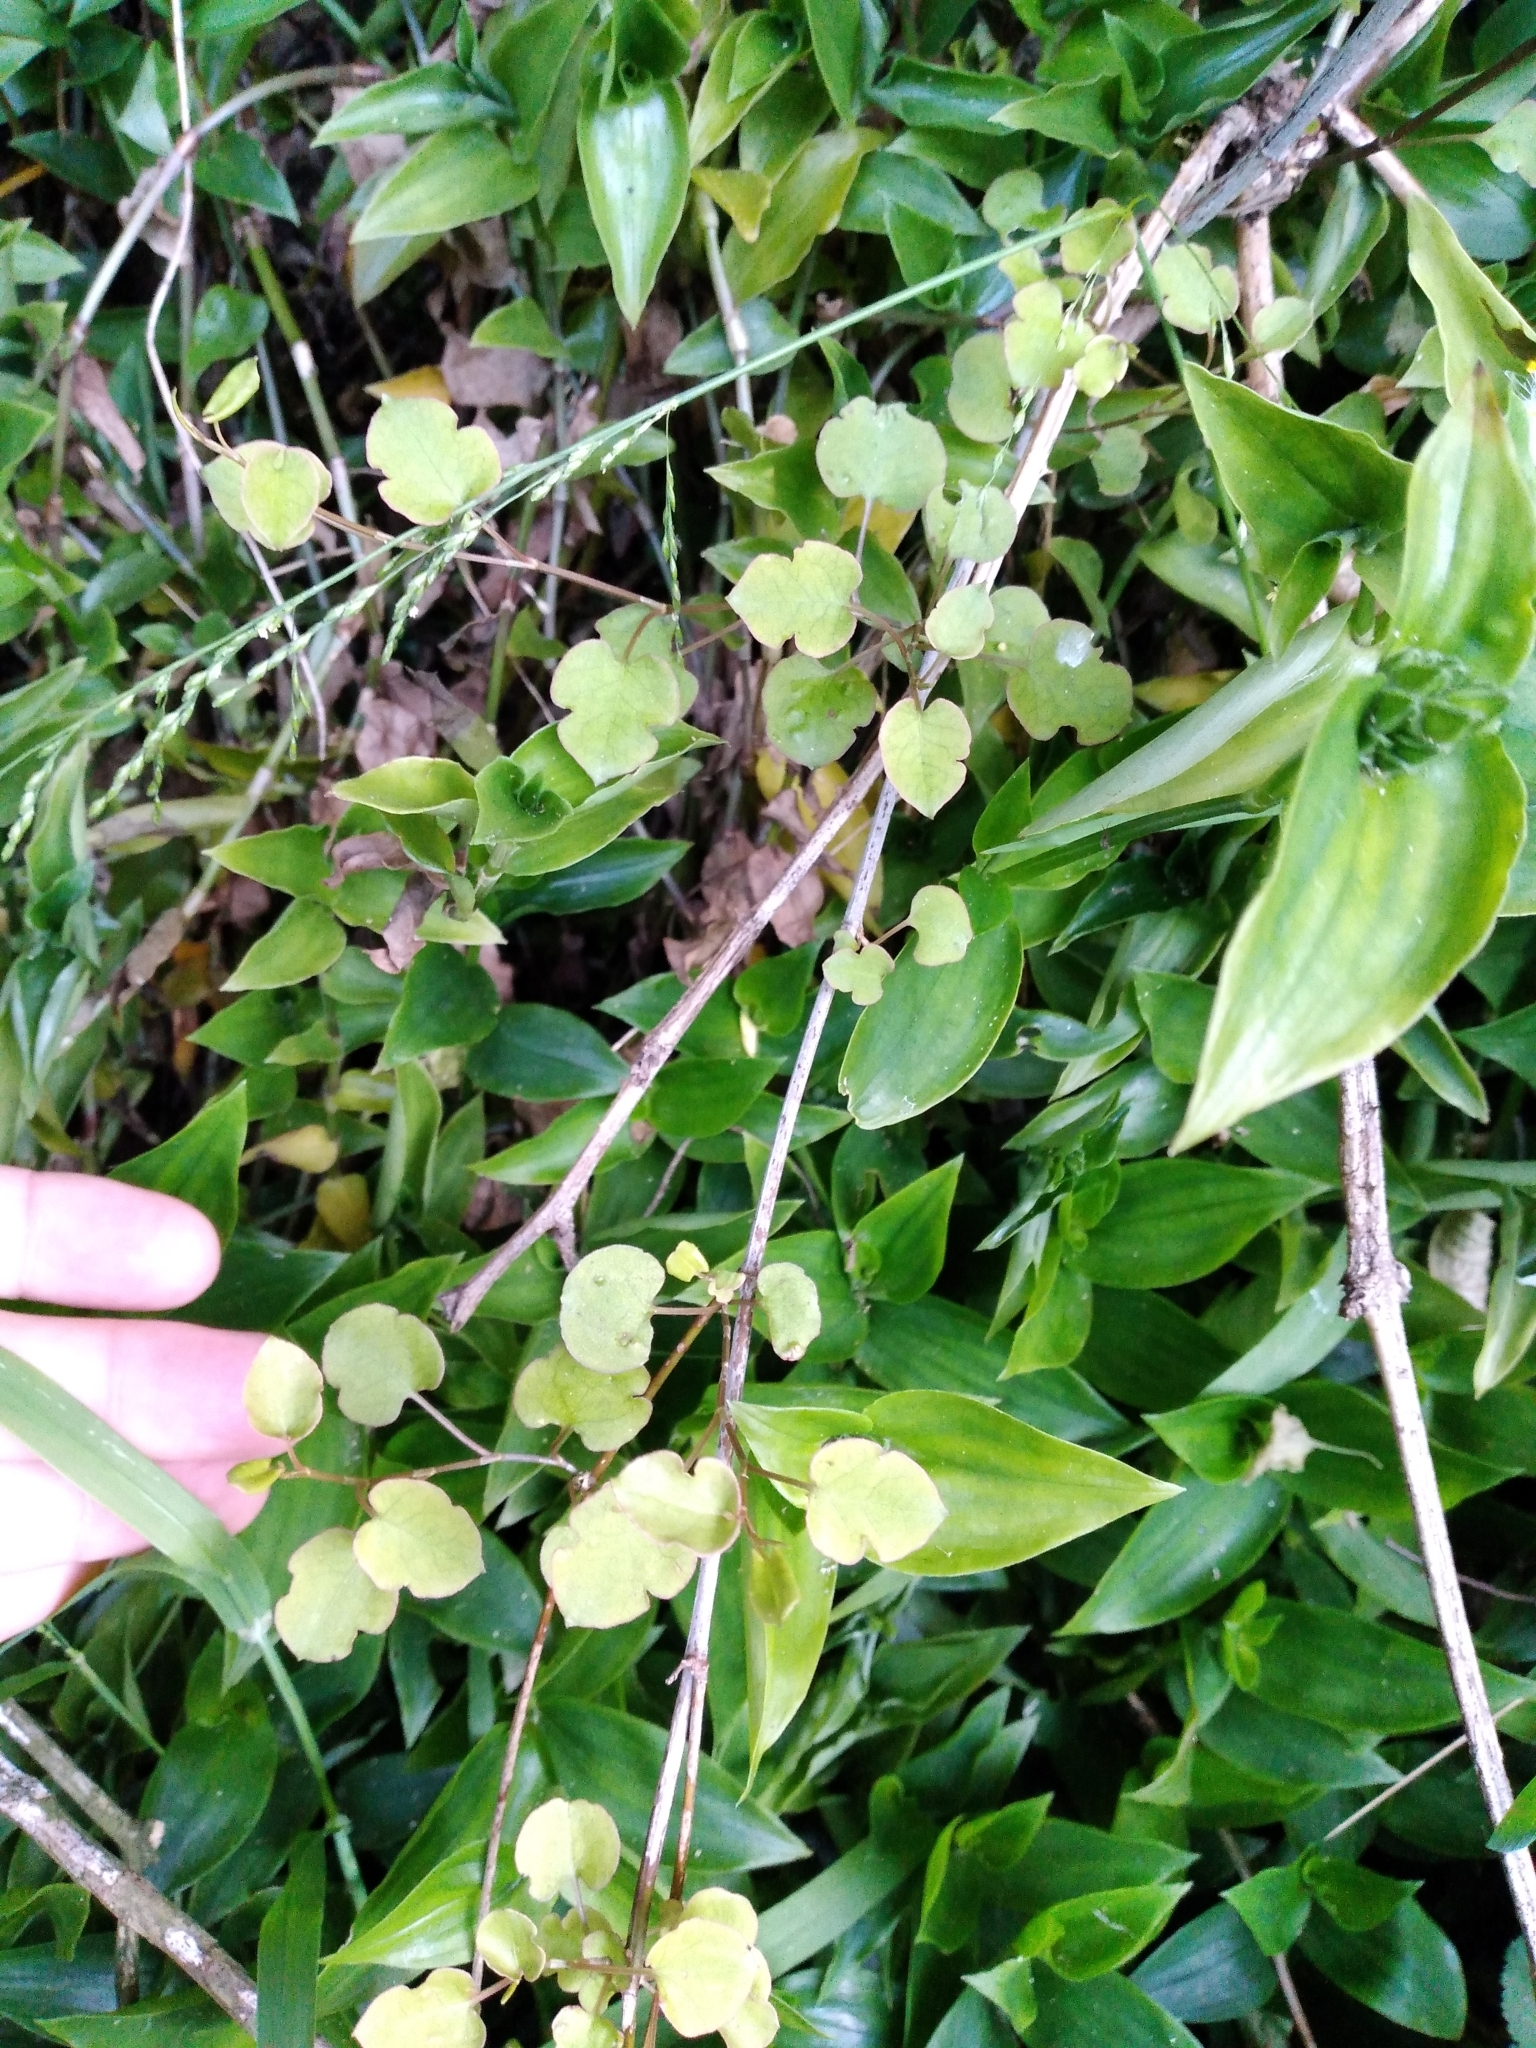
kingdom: Plantae
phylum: Tracheophyta
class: Magnoliopsida
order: Caryophyllales
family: Polygonaceae
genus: Muehlenbeckia
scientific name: Muehlenbeckia australis
